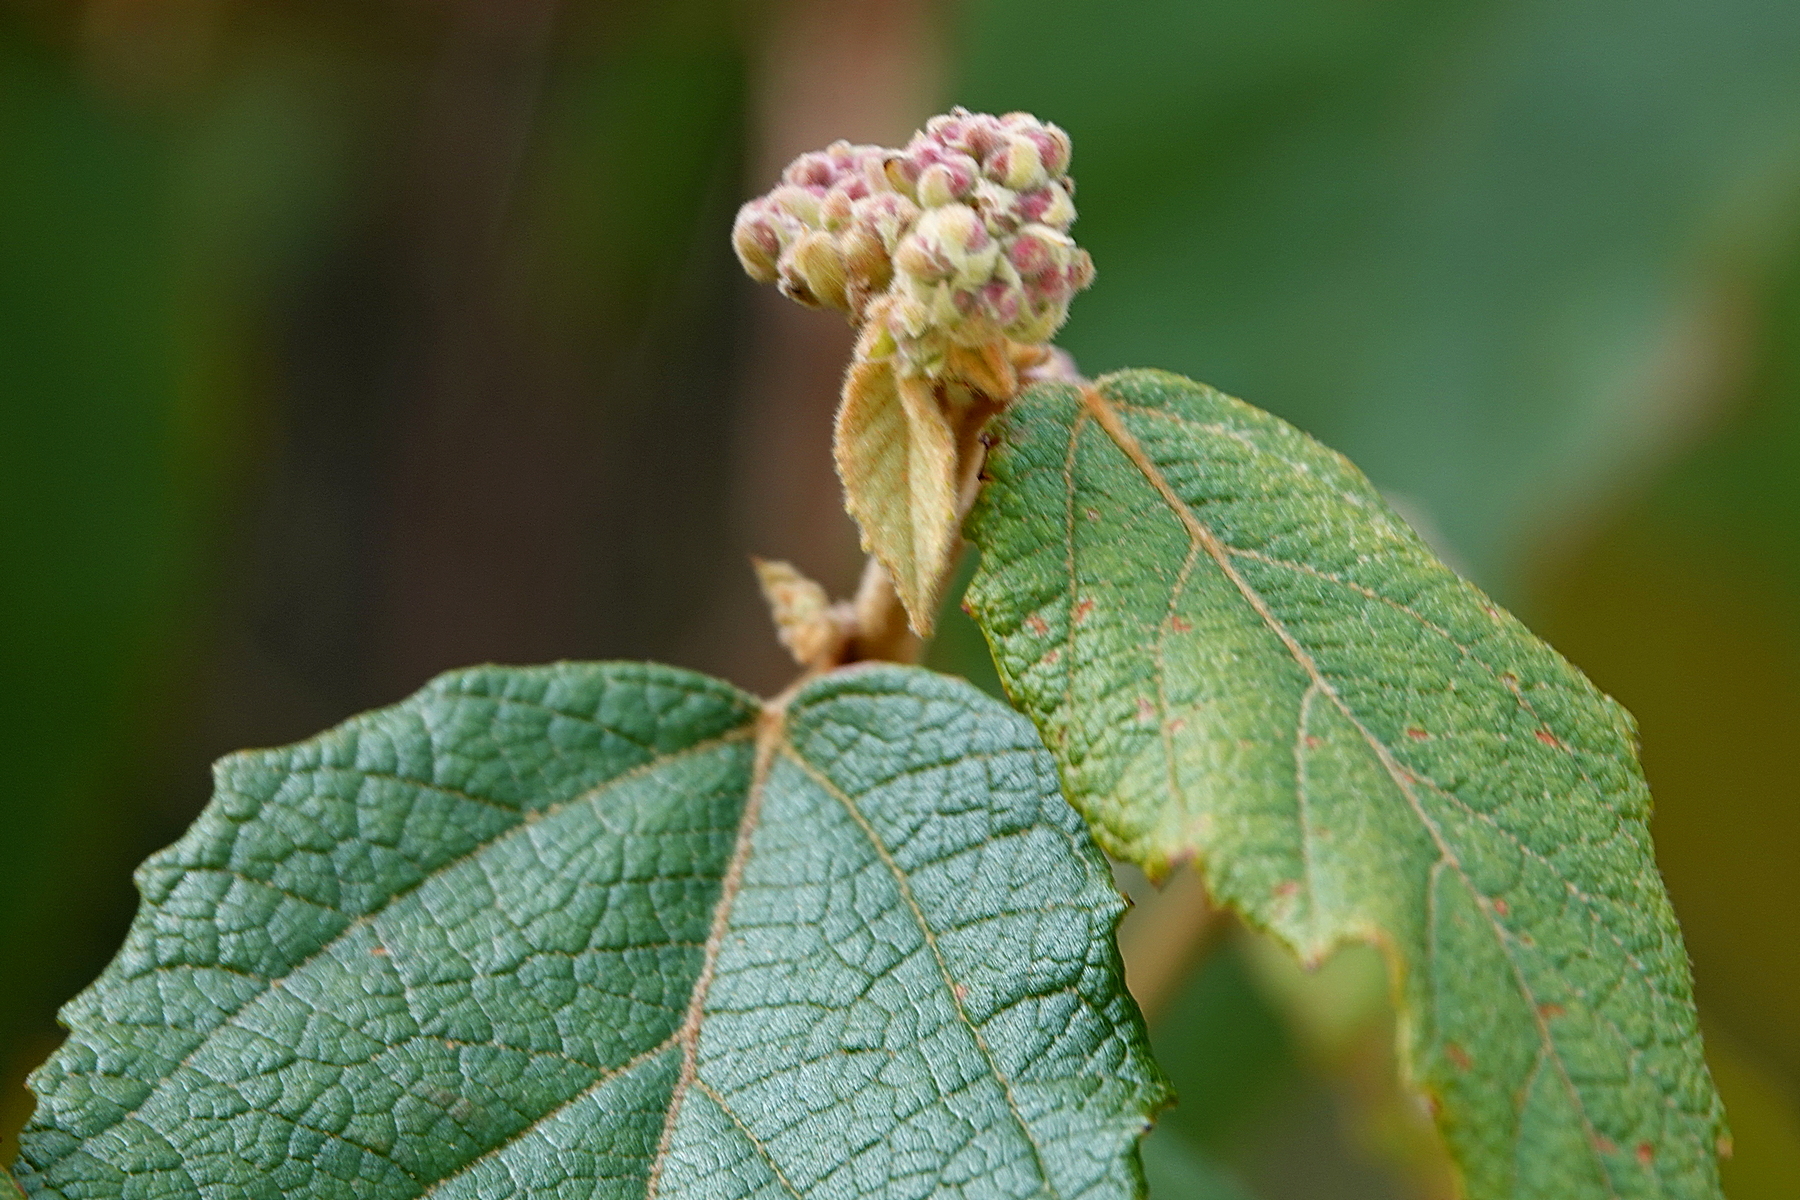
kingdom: Plantae
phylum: Tracheophyta
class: Magnoliopsida
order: Malvales
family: Malvaceae
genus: Androcalva
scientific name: Androcalva rossii
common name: Native hemp
